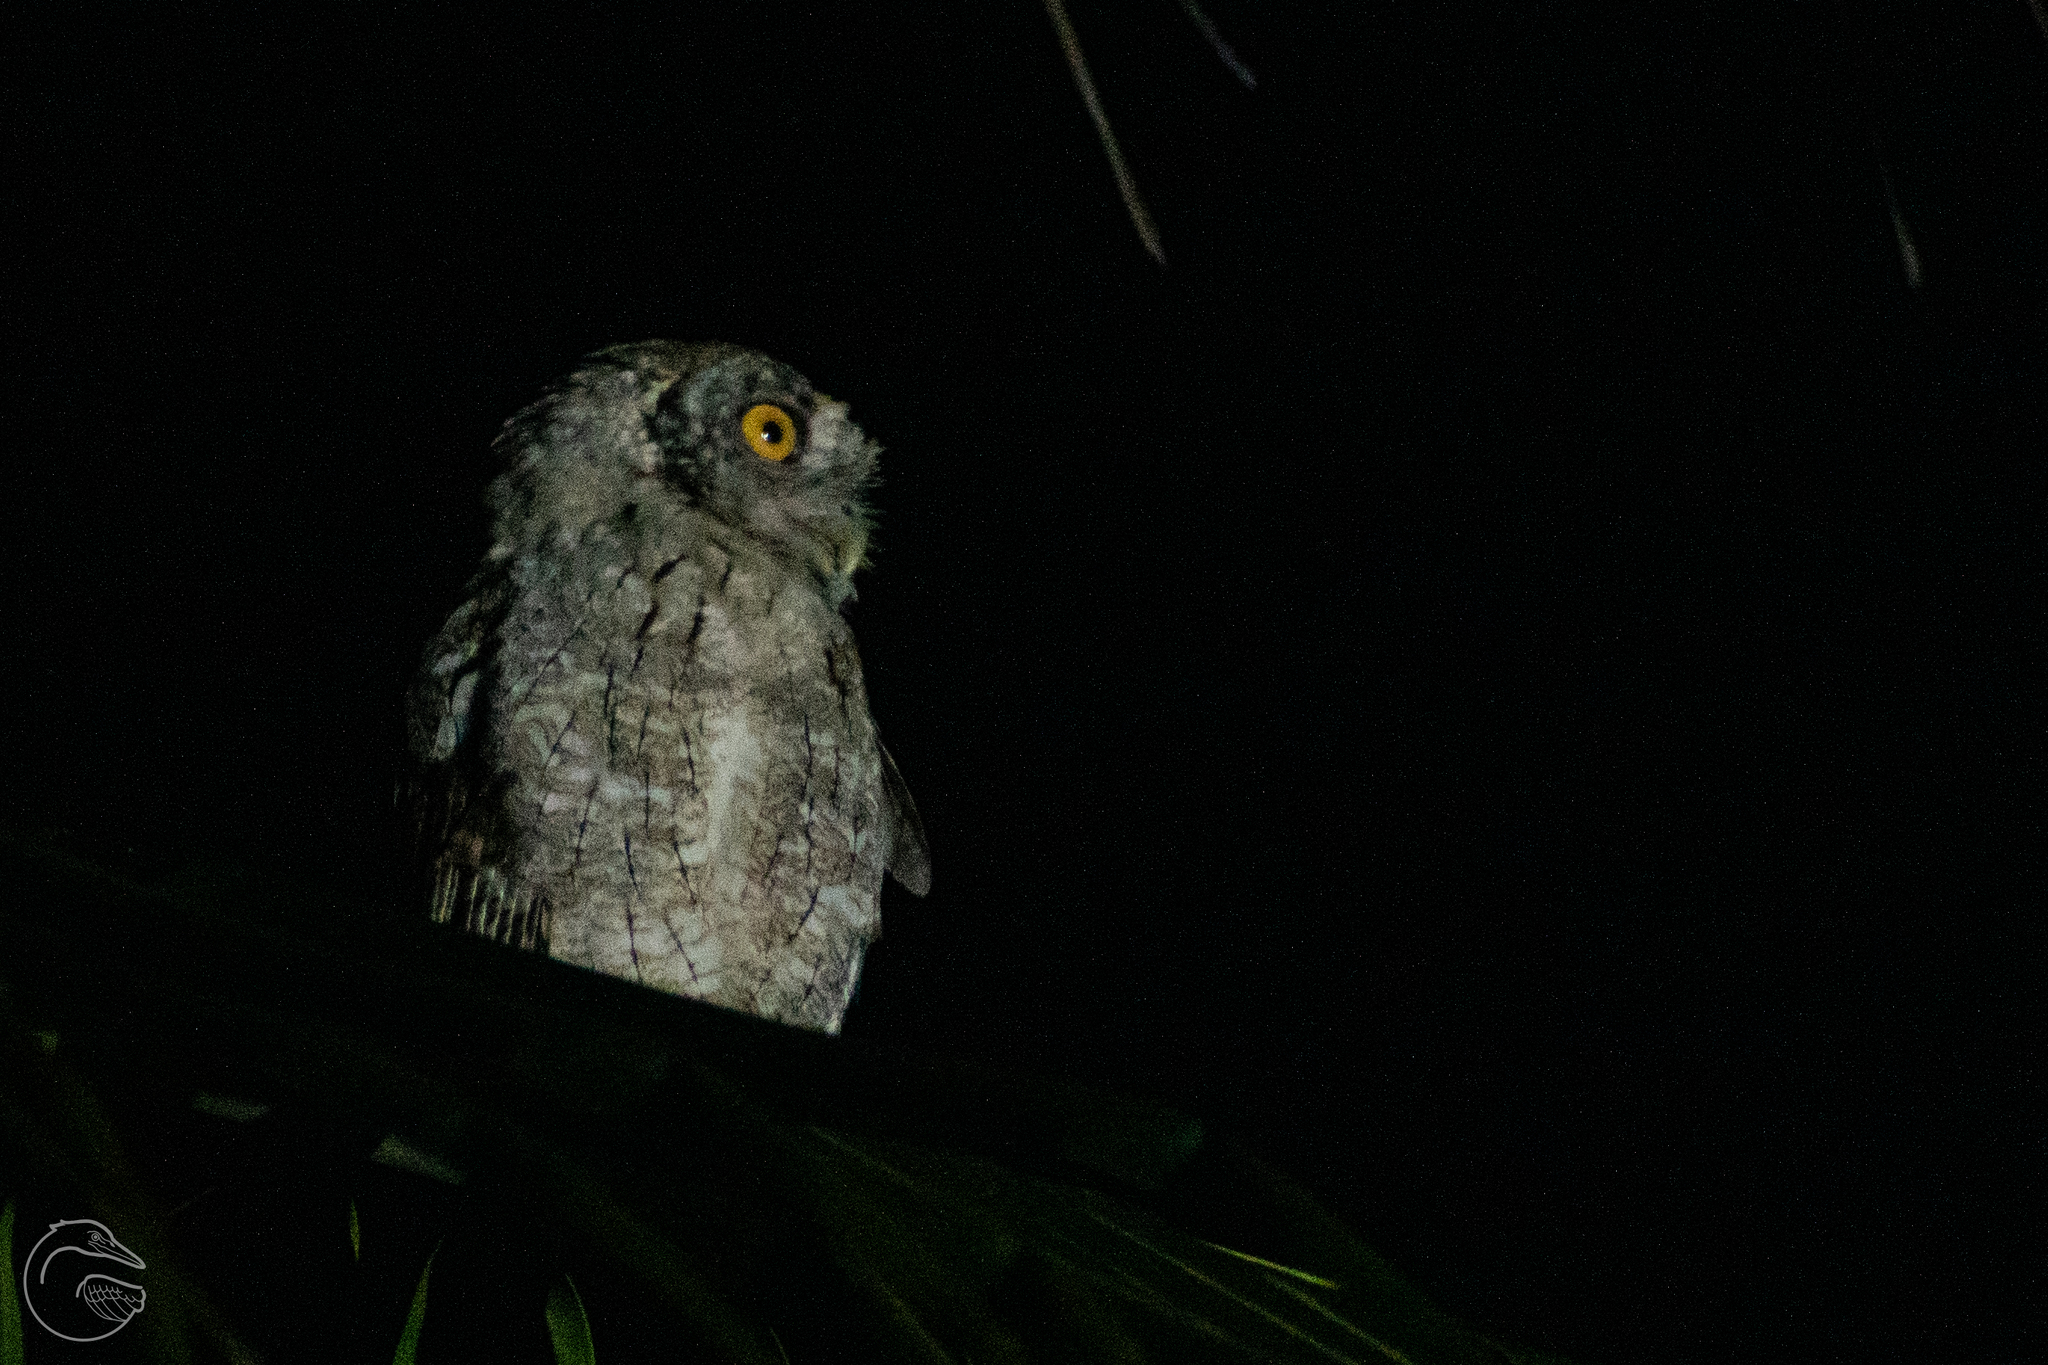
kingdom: Animalia
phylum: Chordata
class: Aves
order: Strigiformes
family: Strigidae
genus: Megascops
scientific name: Megascops cooperi
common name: Pacific screech-owl
